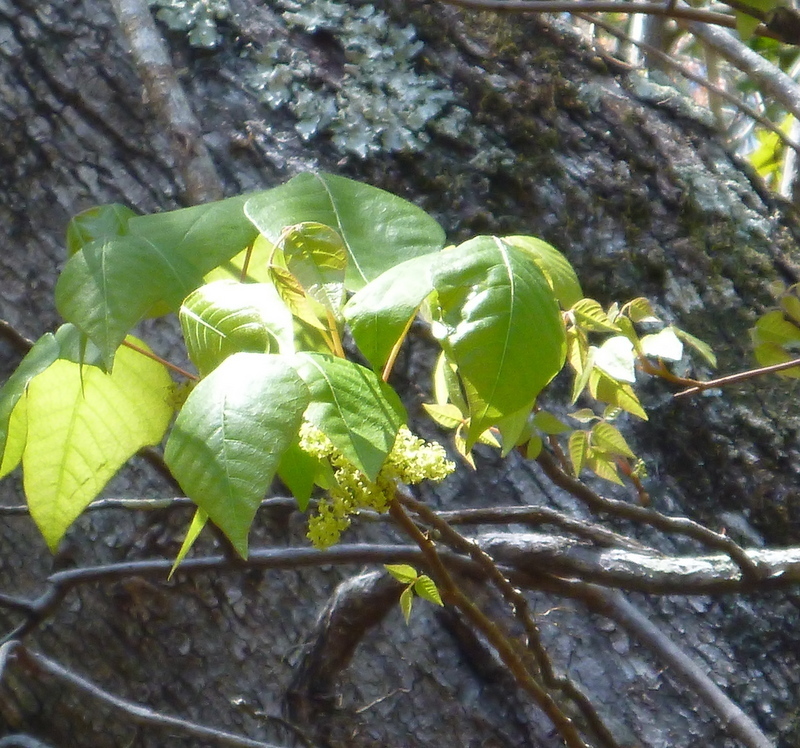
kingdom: Plantae
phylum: Tracheophyta
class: Magnoliopsida
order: Sapindales
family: Anacardiaceae
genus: Toxicodendron
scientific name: Toxicodendron radicans
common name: Poison ivy
